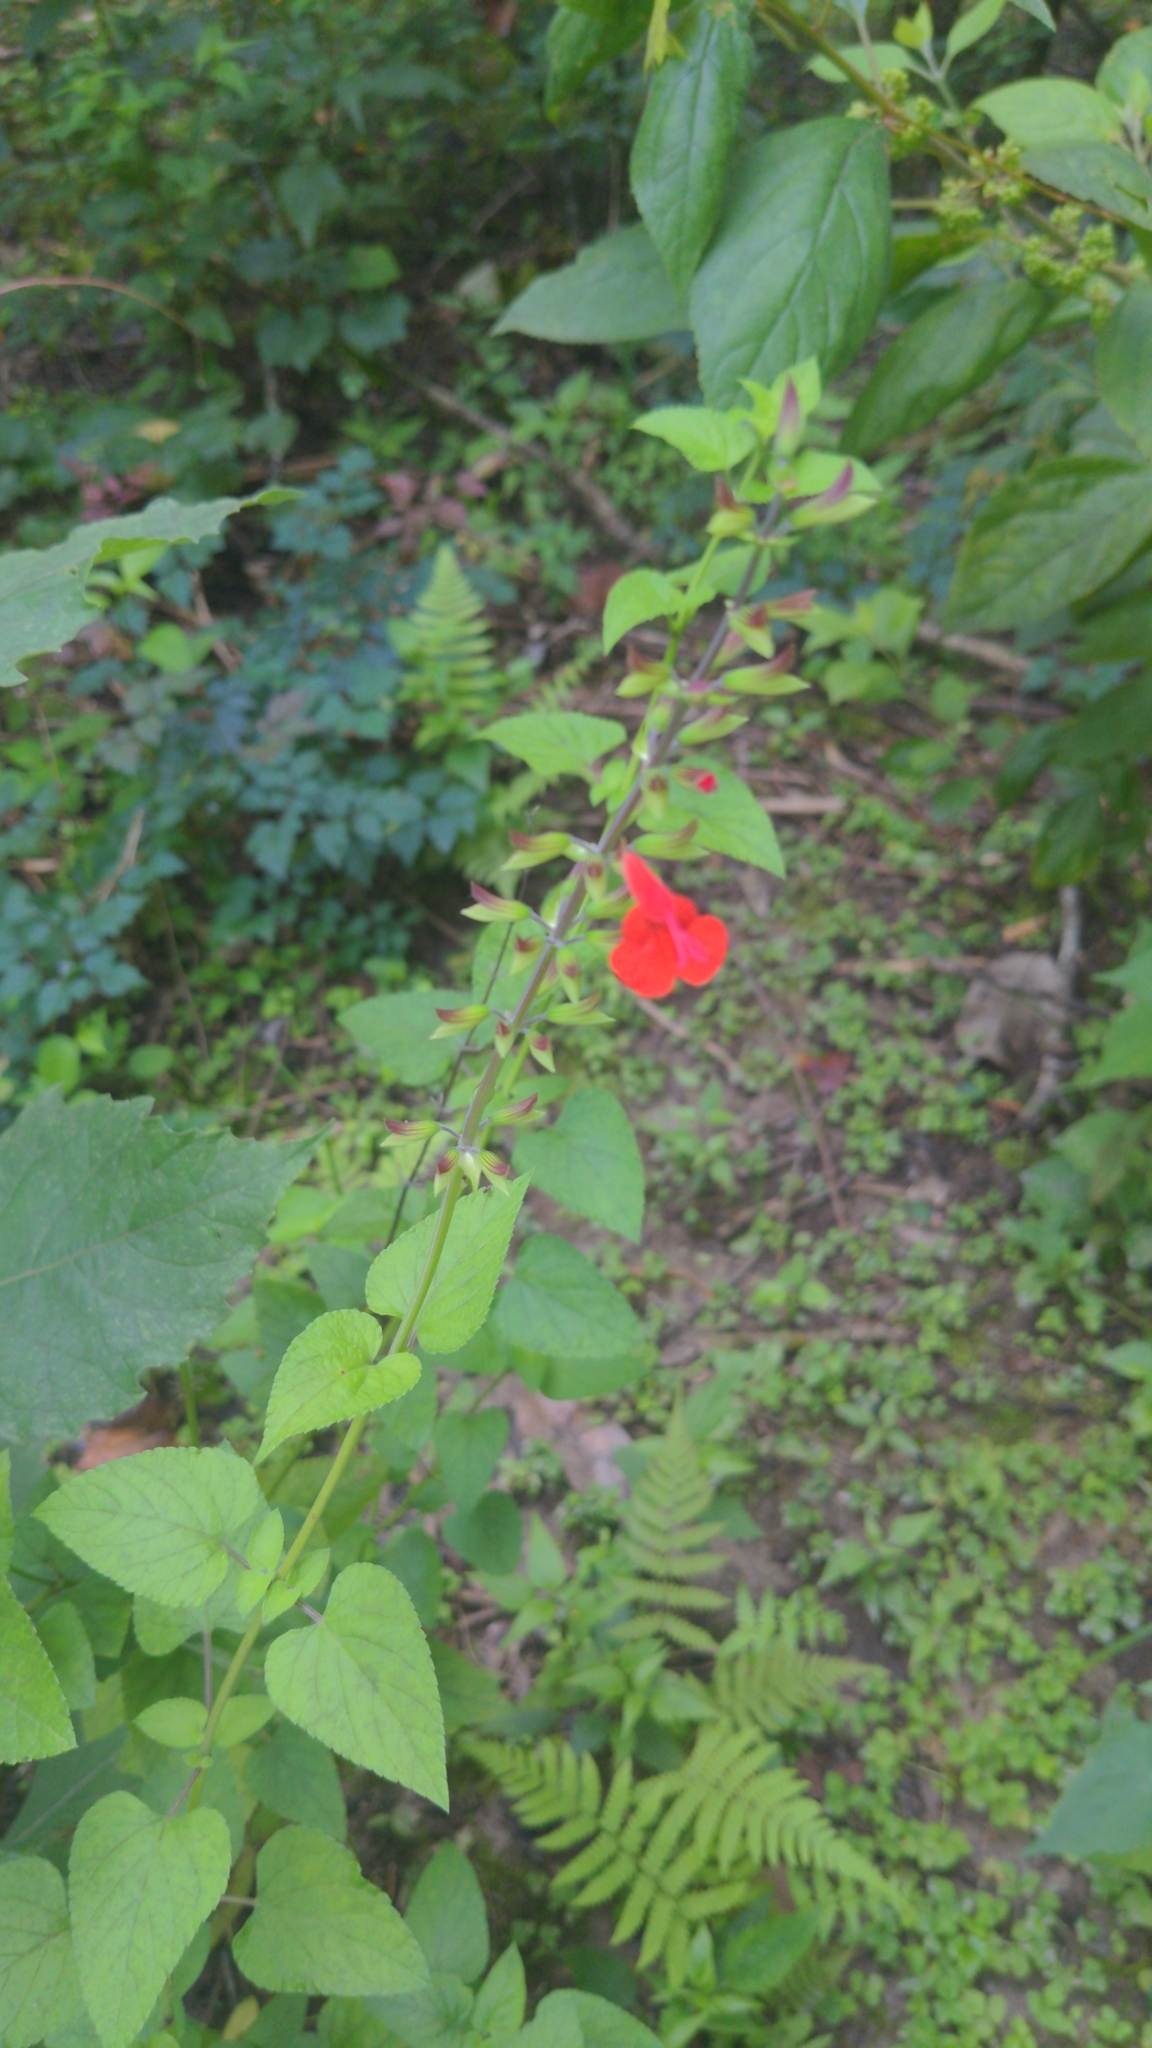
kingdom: Plantae
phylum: Tracheophyta
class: Magnoliopsida
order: Lamiales
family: Lamiaceae
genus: Salvia
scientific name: Salvia coccinea
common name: Blood sage
